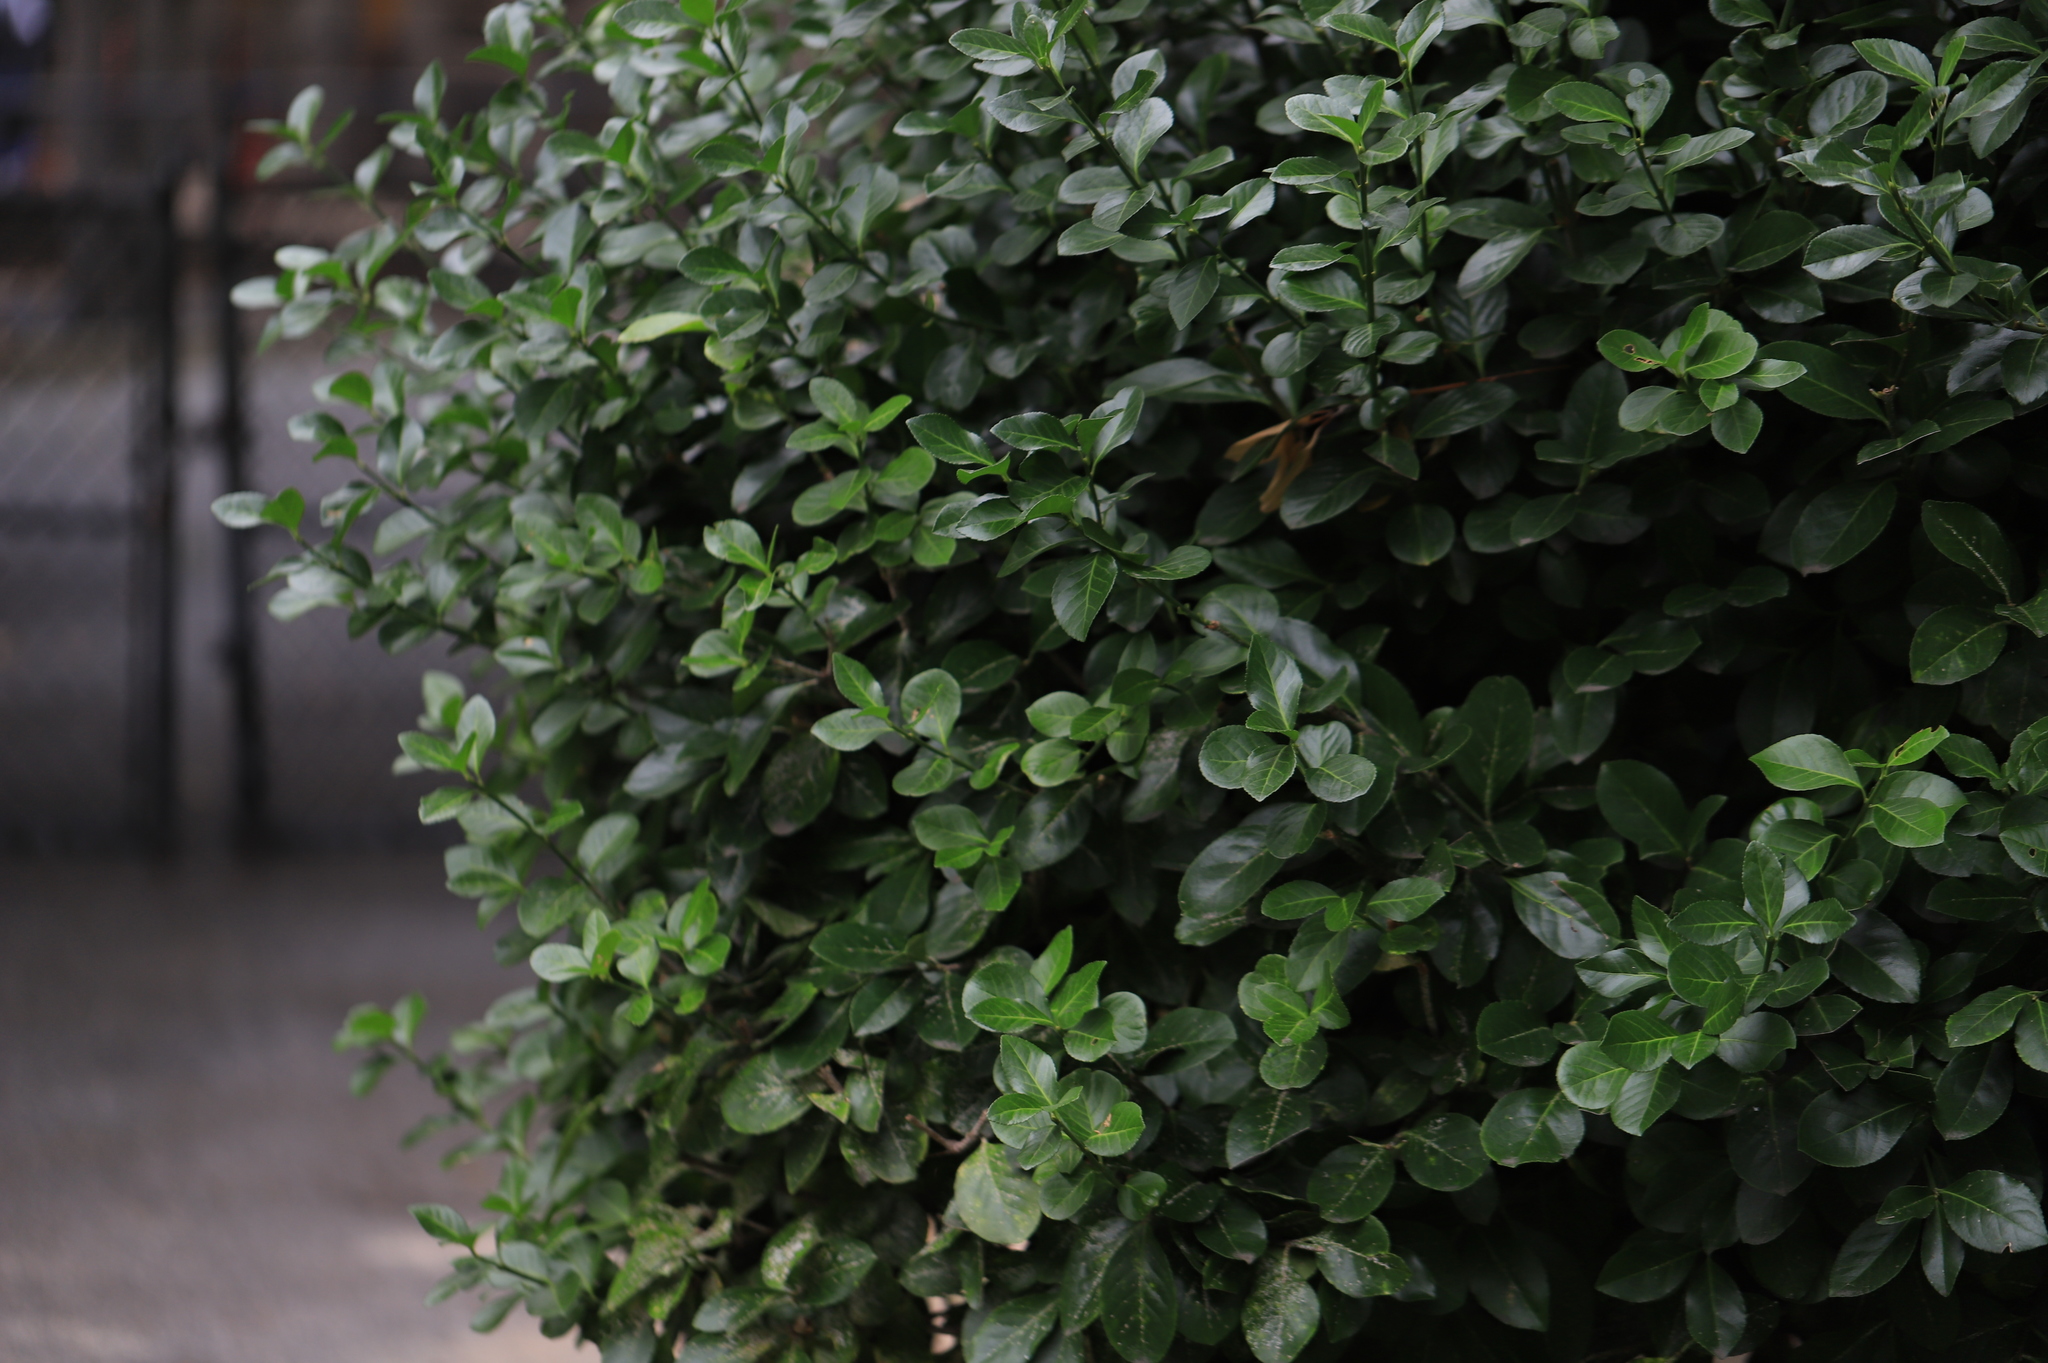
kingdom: Animalia
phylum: Arthropoda
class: Insecta
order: Hemiptera
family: Diaspididae
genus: Unaspis
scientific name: Unaspis euonymi
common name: Euonymus scale
